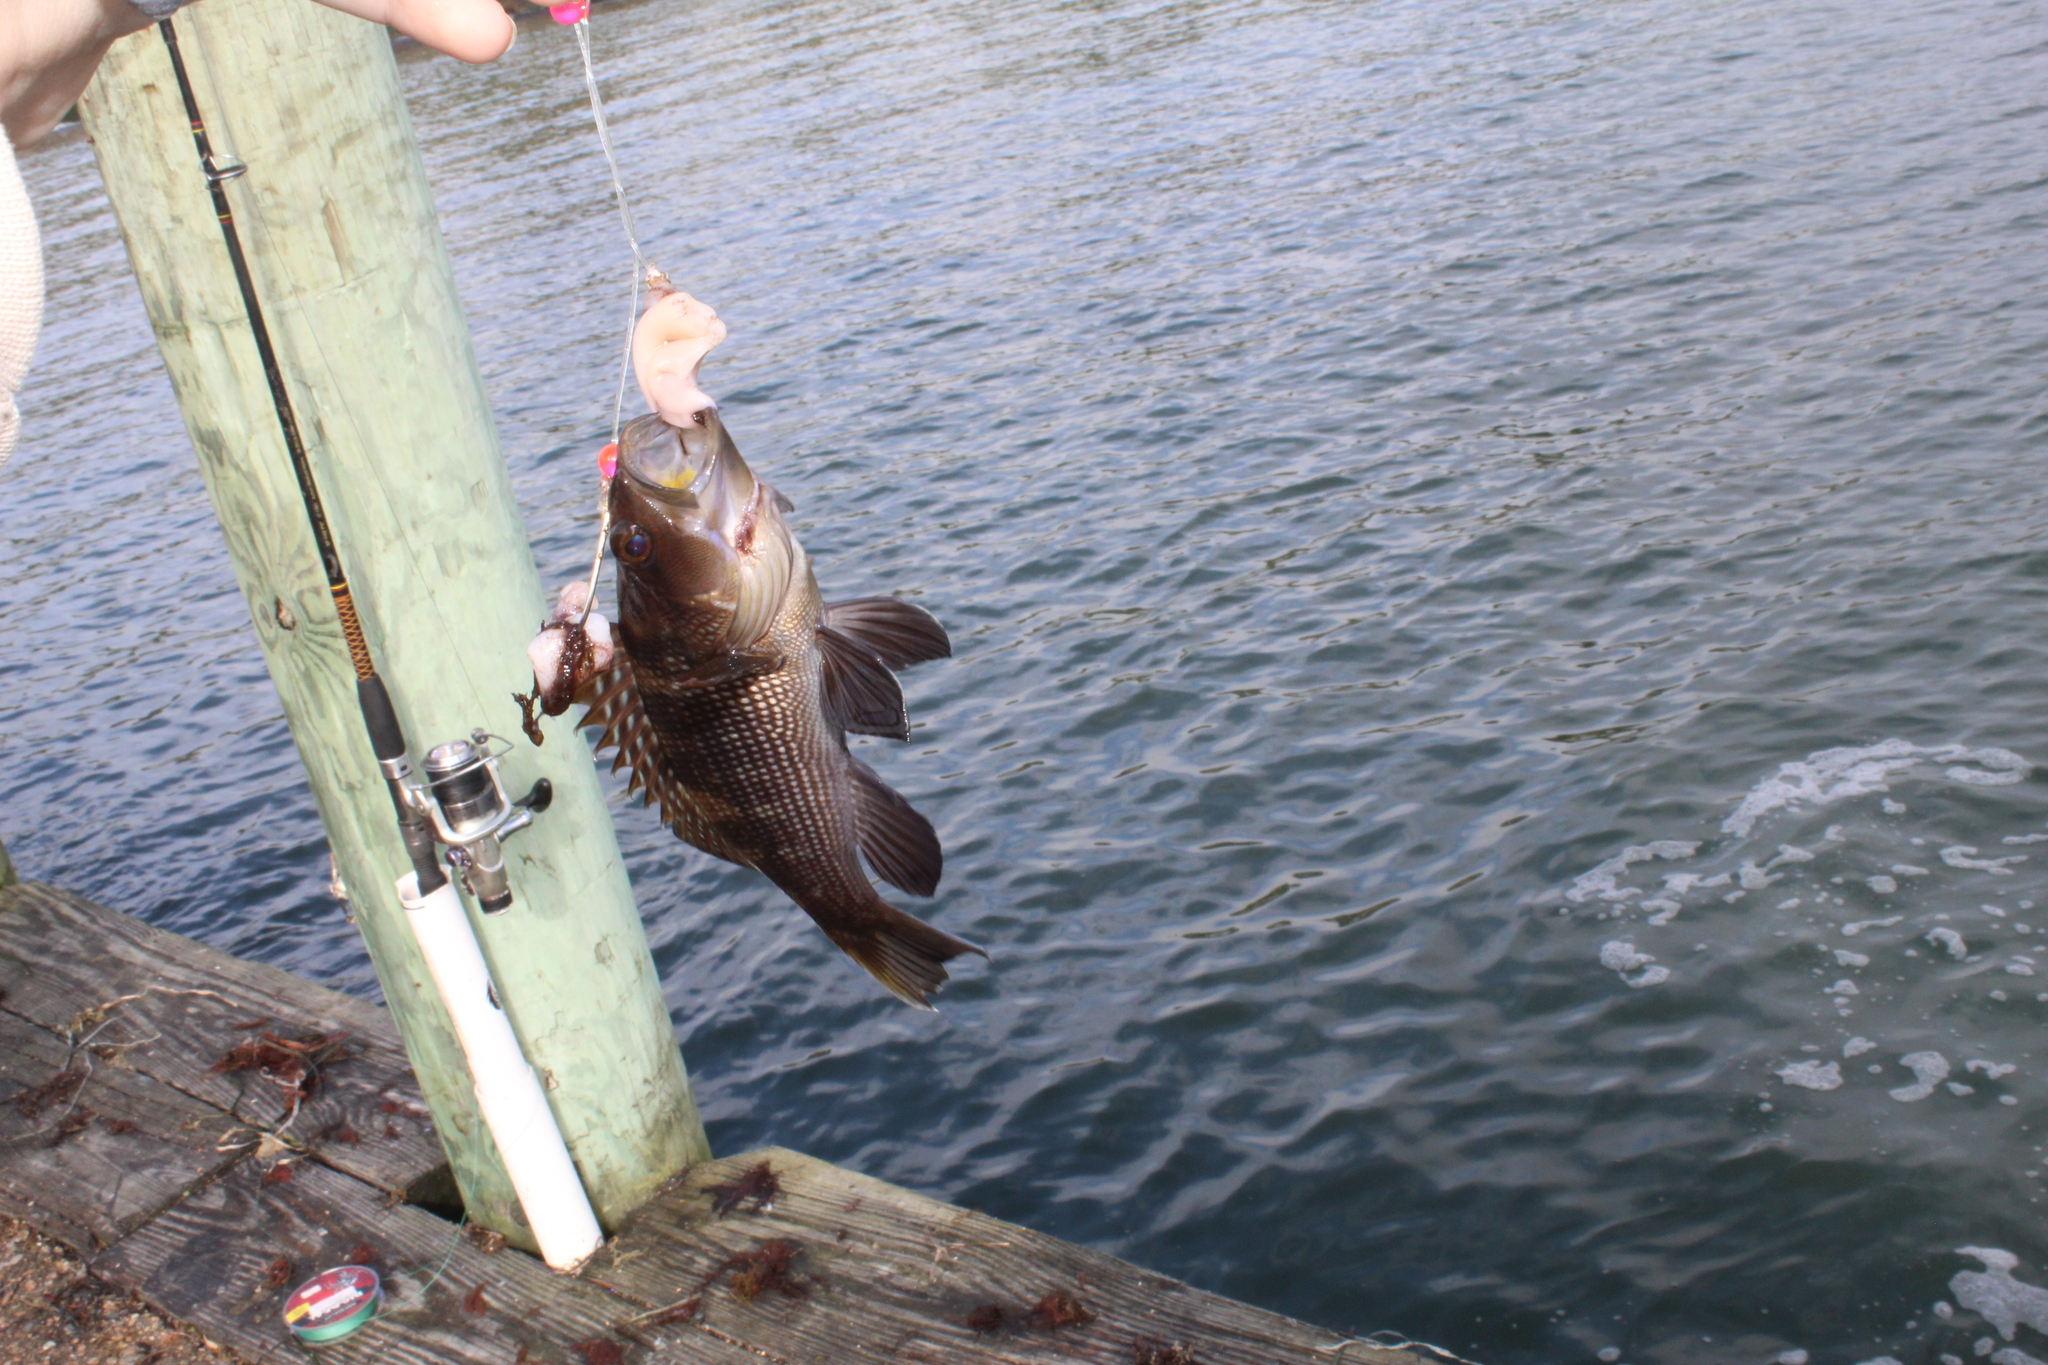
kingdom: Animalia
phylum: Chordata
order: Perciformes
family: Serranidae
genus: Centropristis
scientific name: Centropristis striata
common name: Black sea bass
